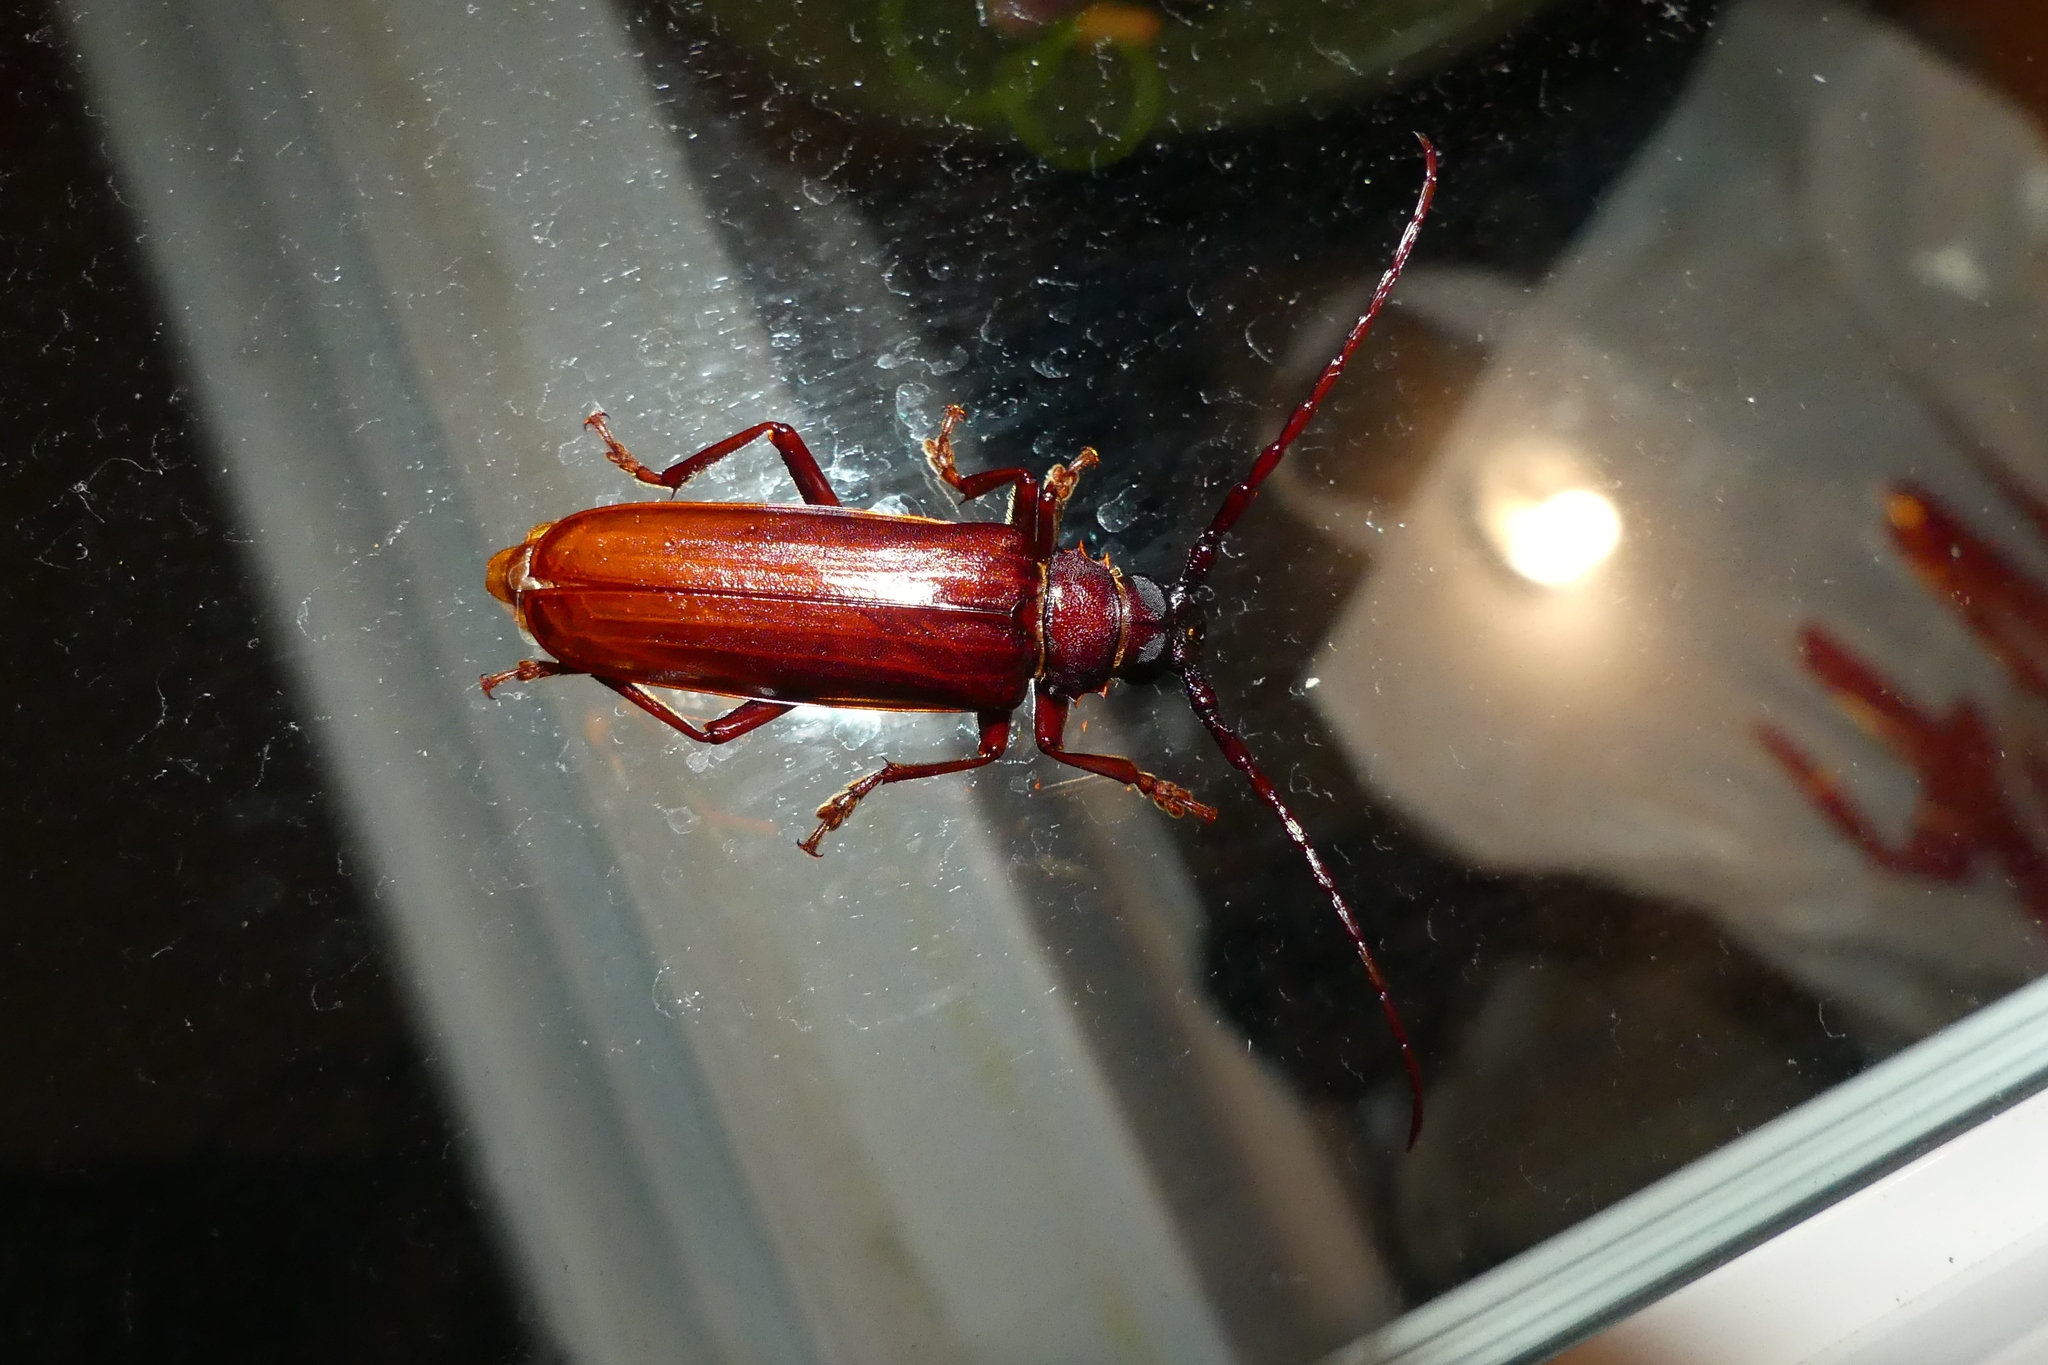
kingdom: Animalia
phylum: Arthropoda
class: Insecta
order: Coleoptera
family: Cerambycidae
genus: Orthosoma
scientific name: Orthosoma brunneum
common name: Brown prionid beetle
